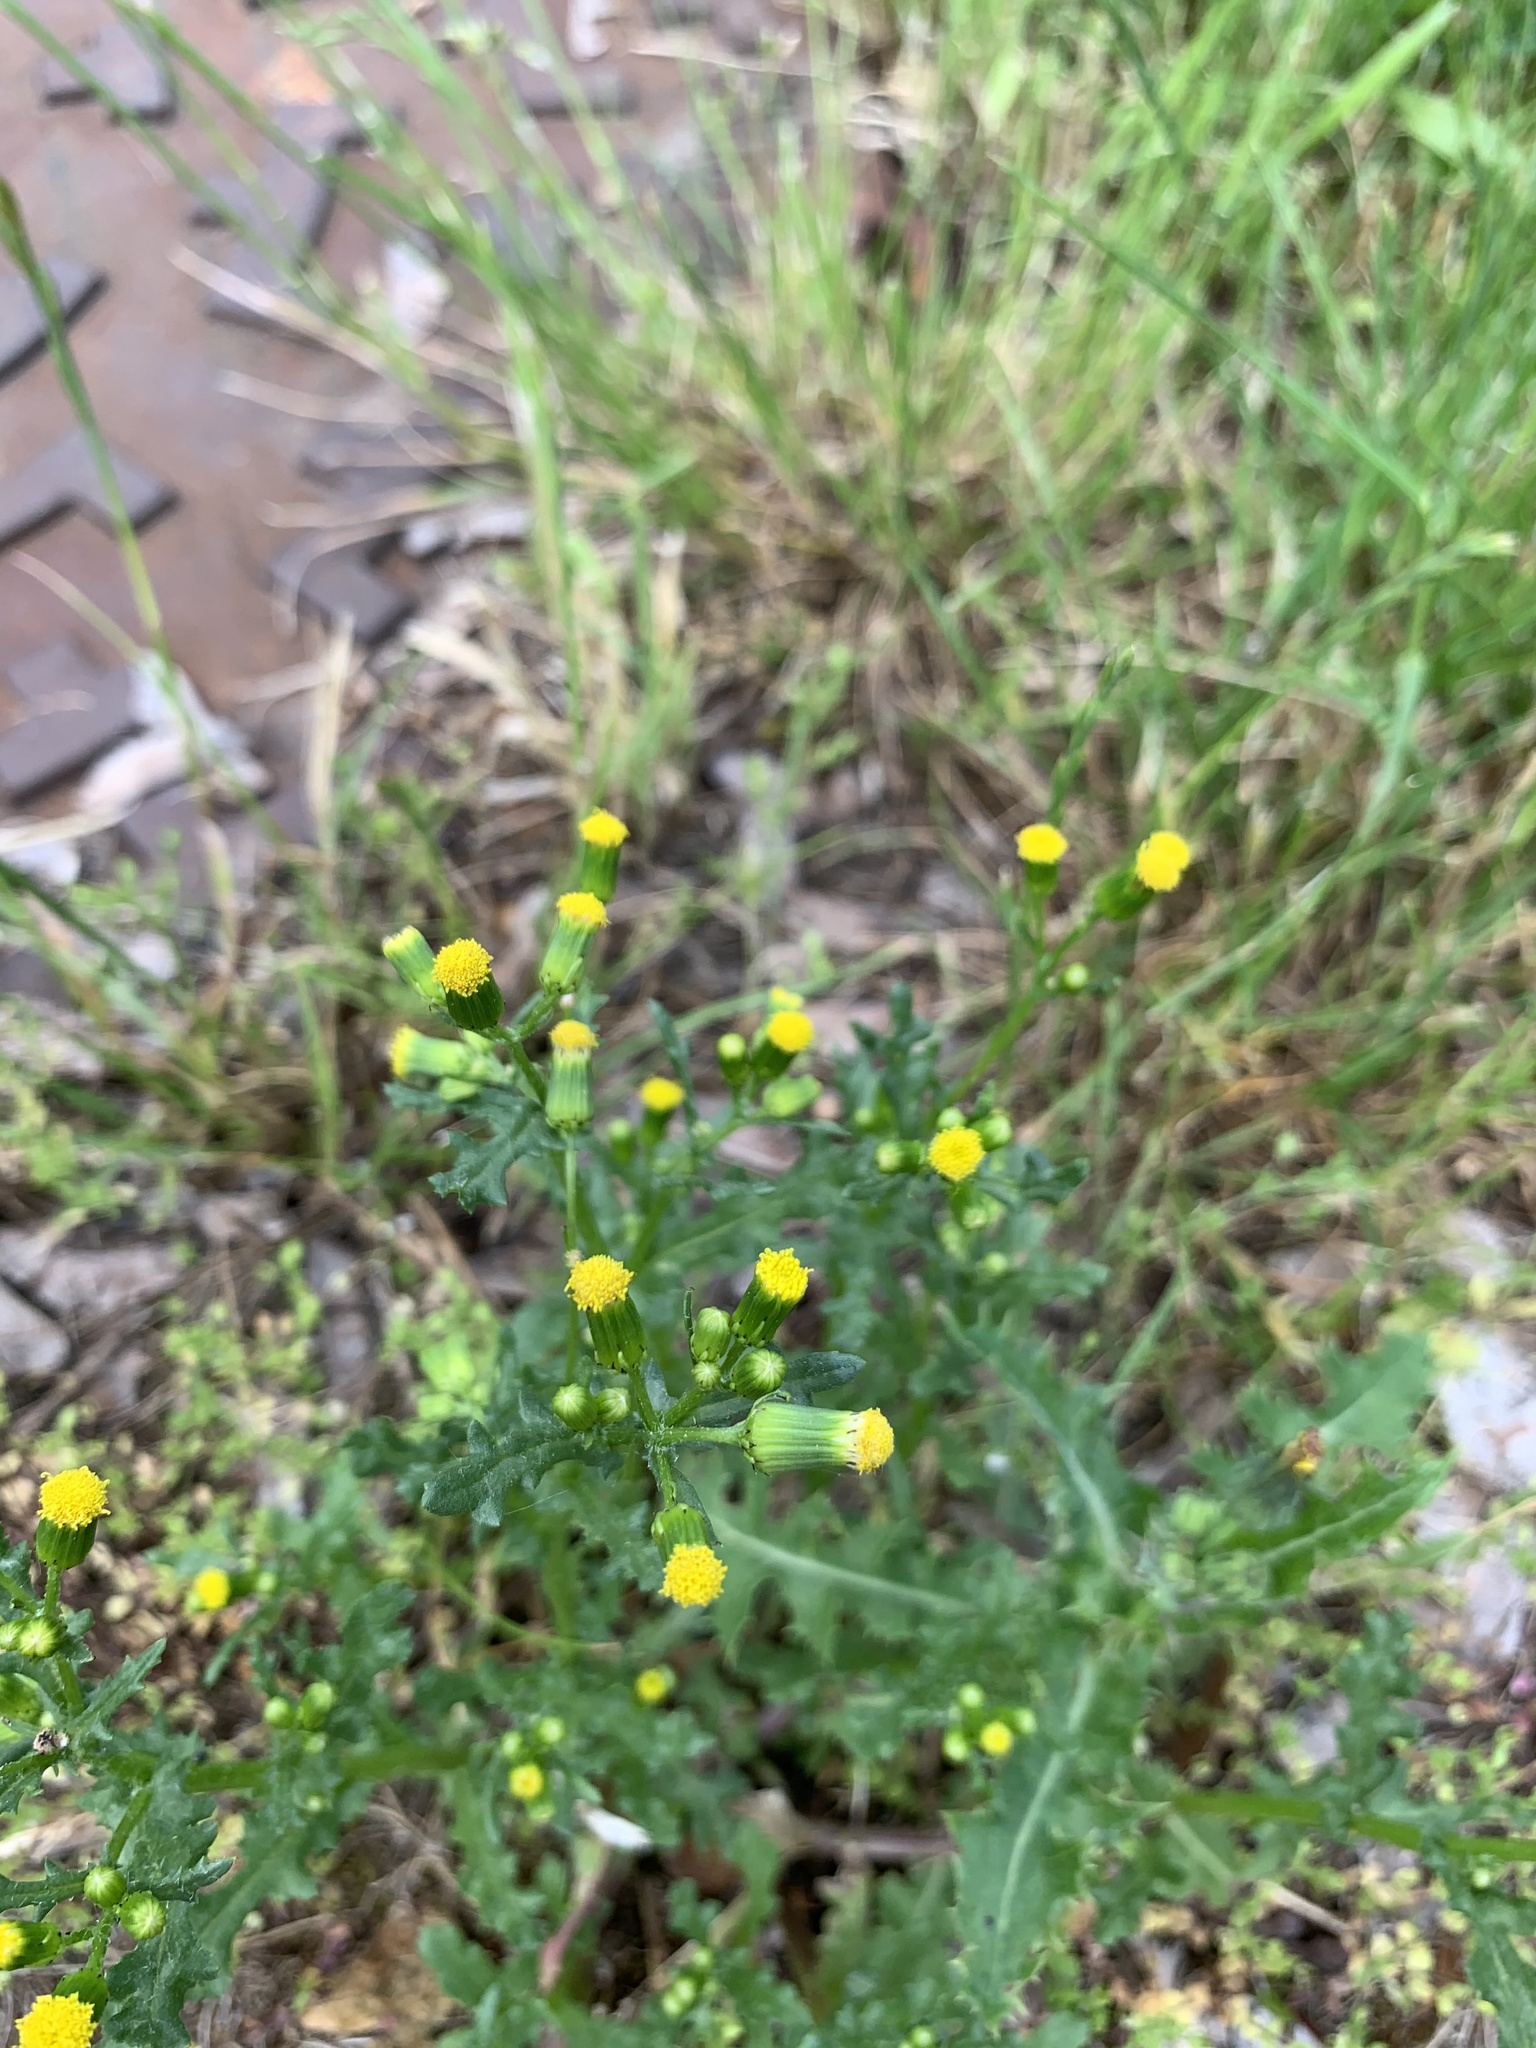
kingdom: Plantae
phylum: Tracheophyta
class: Magnoliopsida
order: Asterales
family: Asteraceae
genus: Senecio
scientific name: Senecio vulgaris
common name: Old-man-in-the-spring
